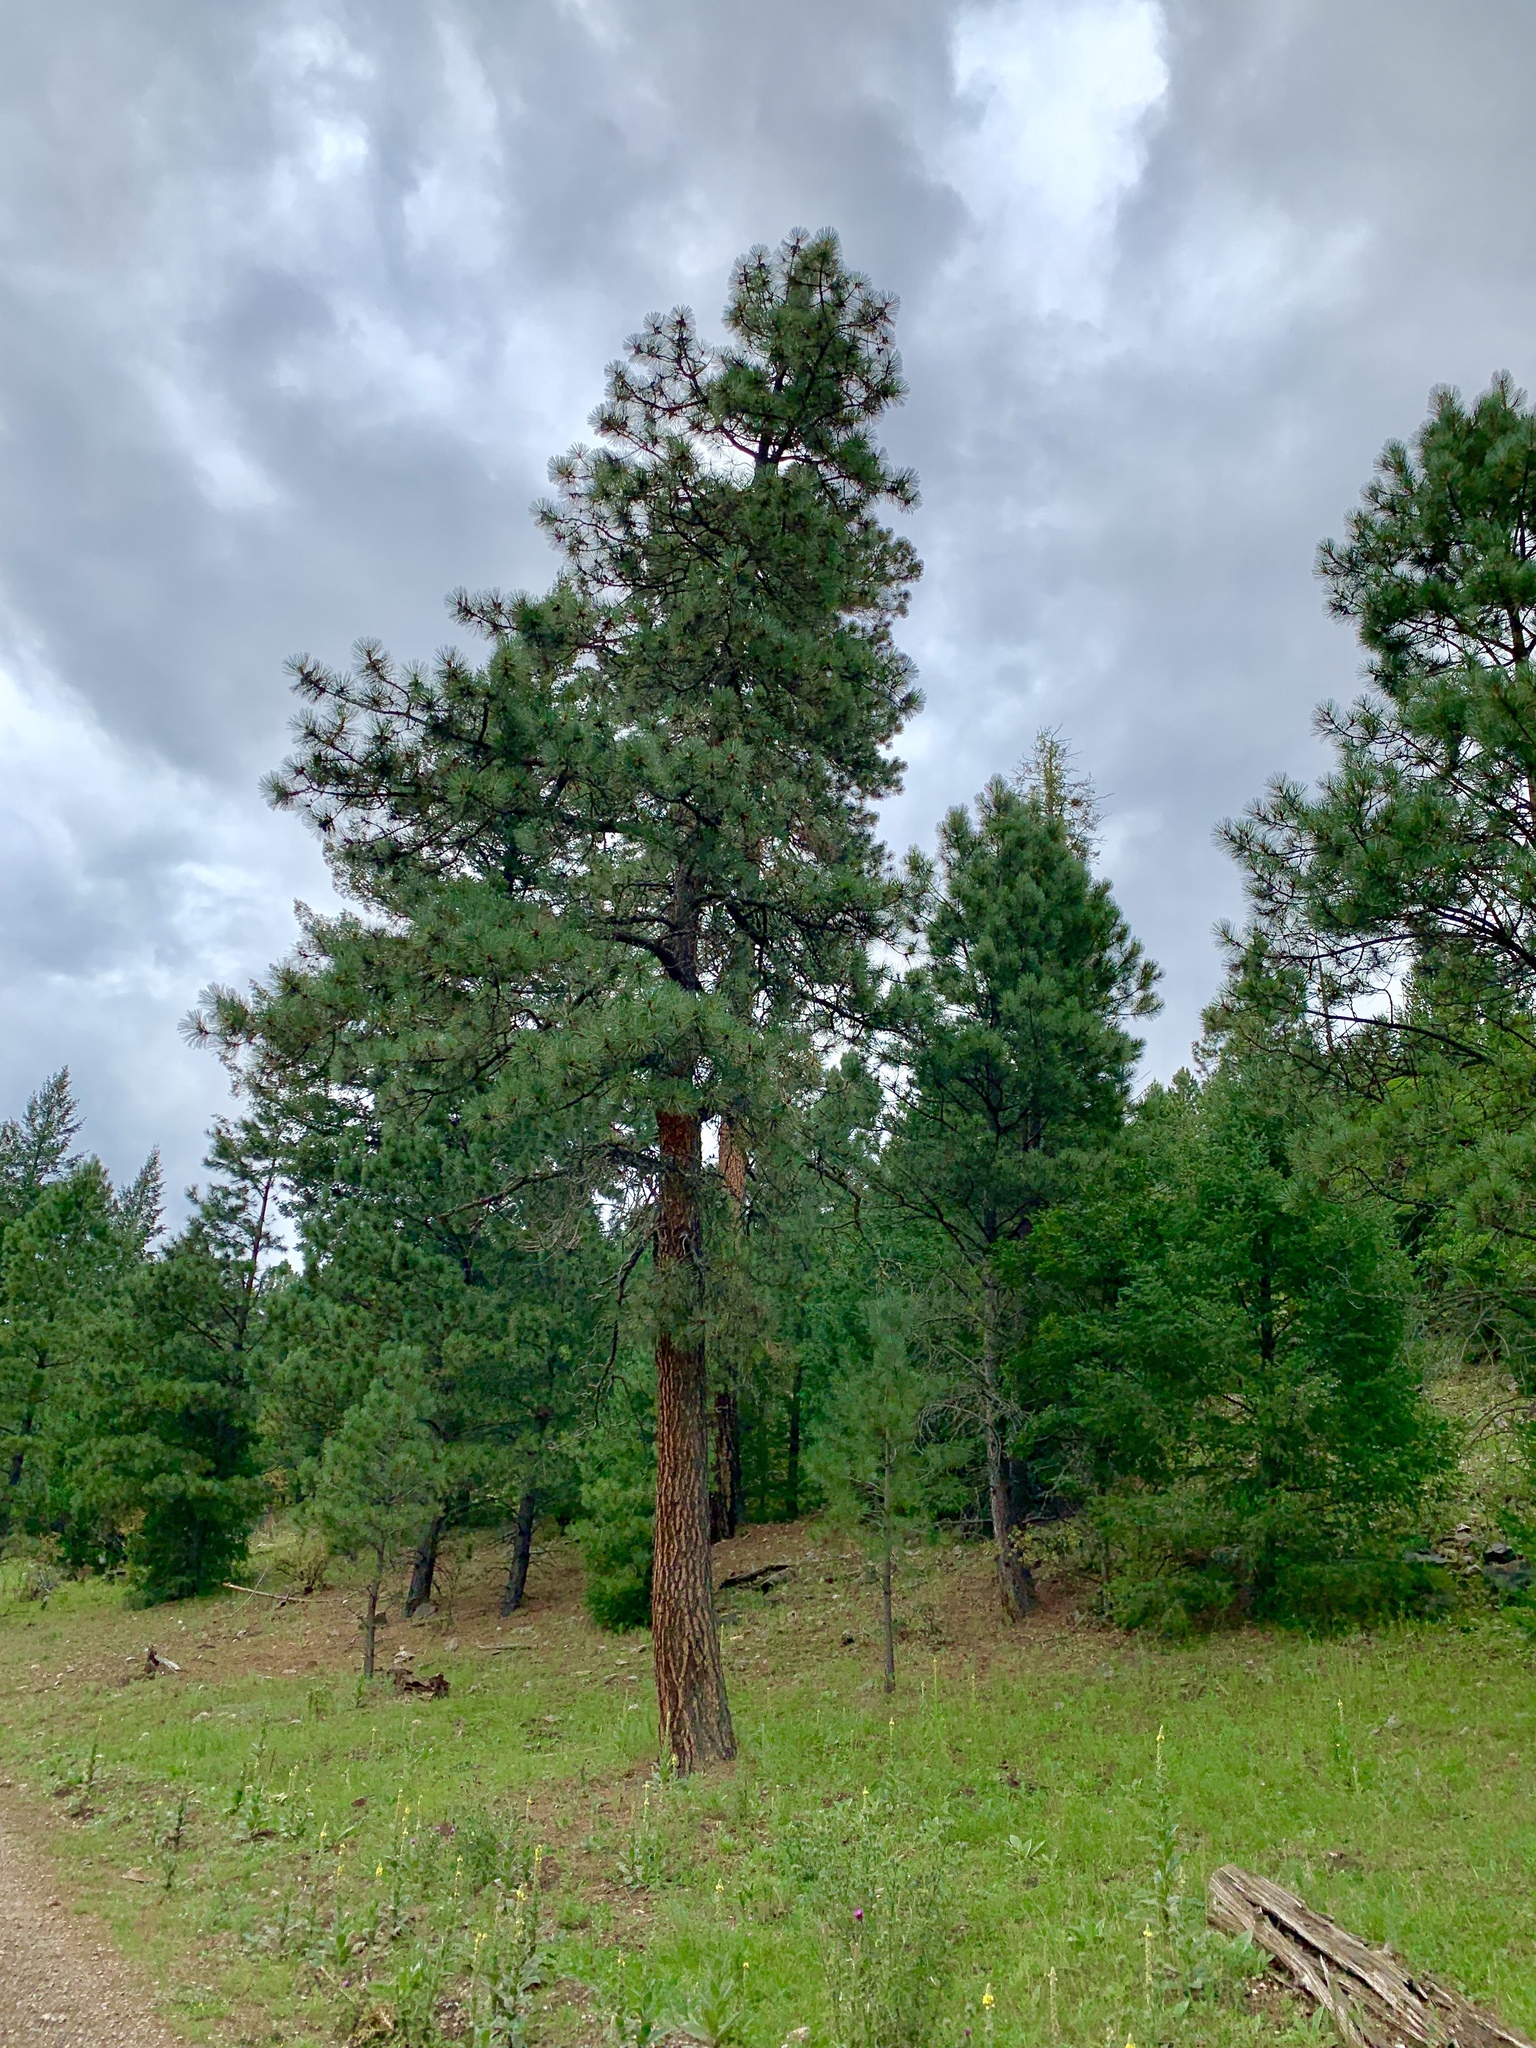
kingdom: Plantae
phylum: Tracheophyta
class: Pinopsida
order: Pinales
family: Pinaceae
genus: Pinus
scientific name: Pinus ponderosa
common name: Western yellow-pine
